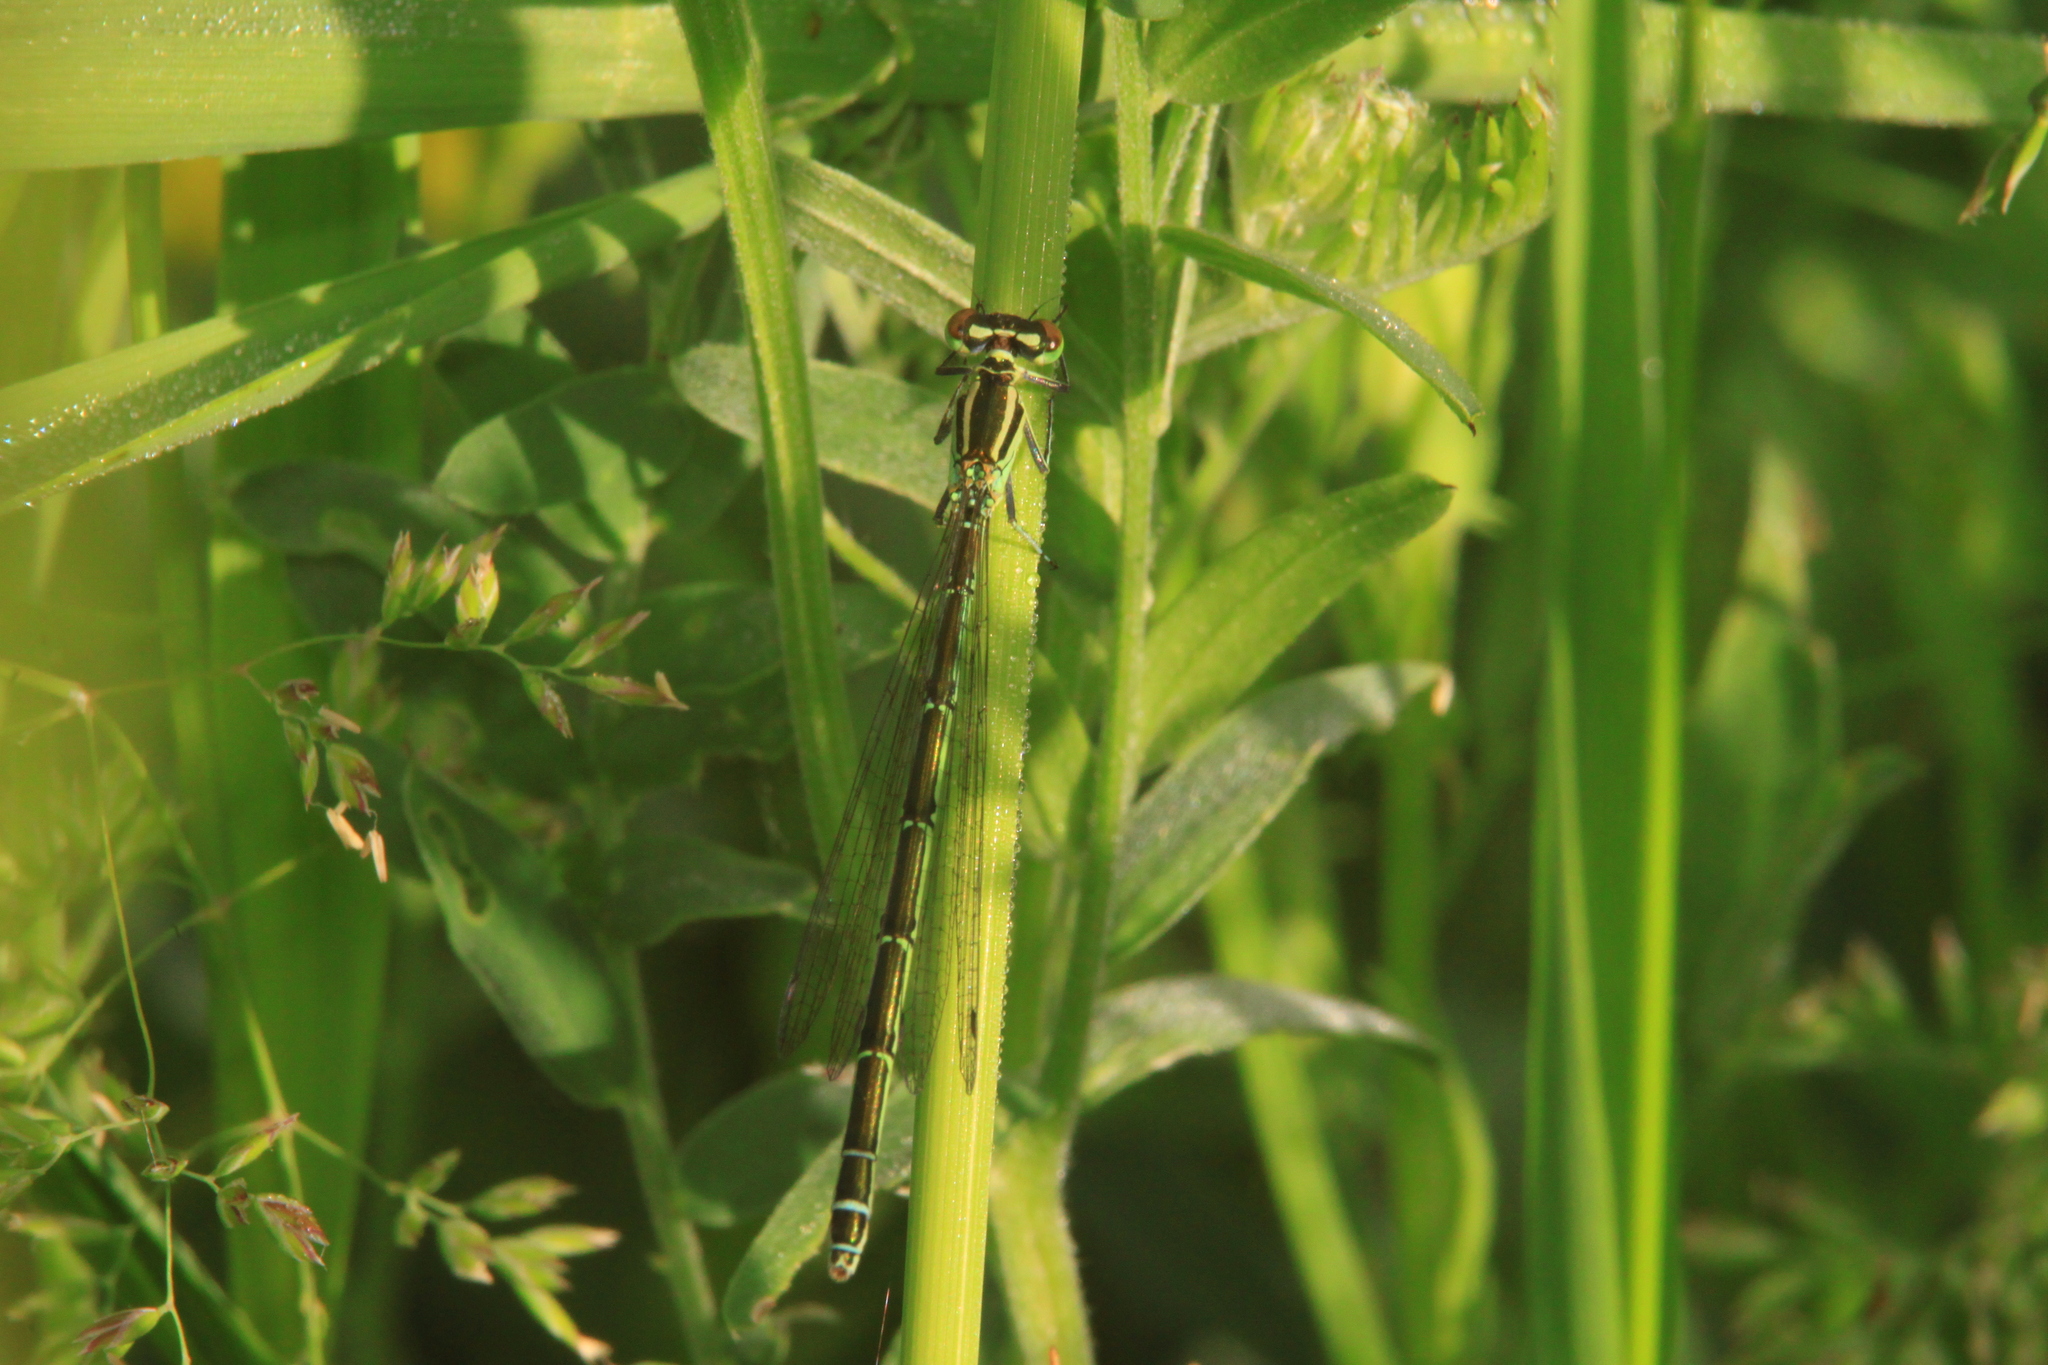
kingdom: Animalia
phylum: Arthropoda
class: Insecta
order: Odonata
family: Coenagrionidae
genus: Erythromma
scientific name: Erythromma najas
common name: Red-eyed damselfly
